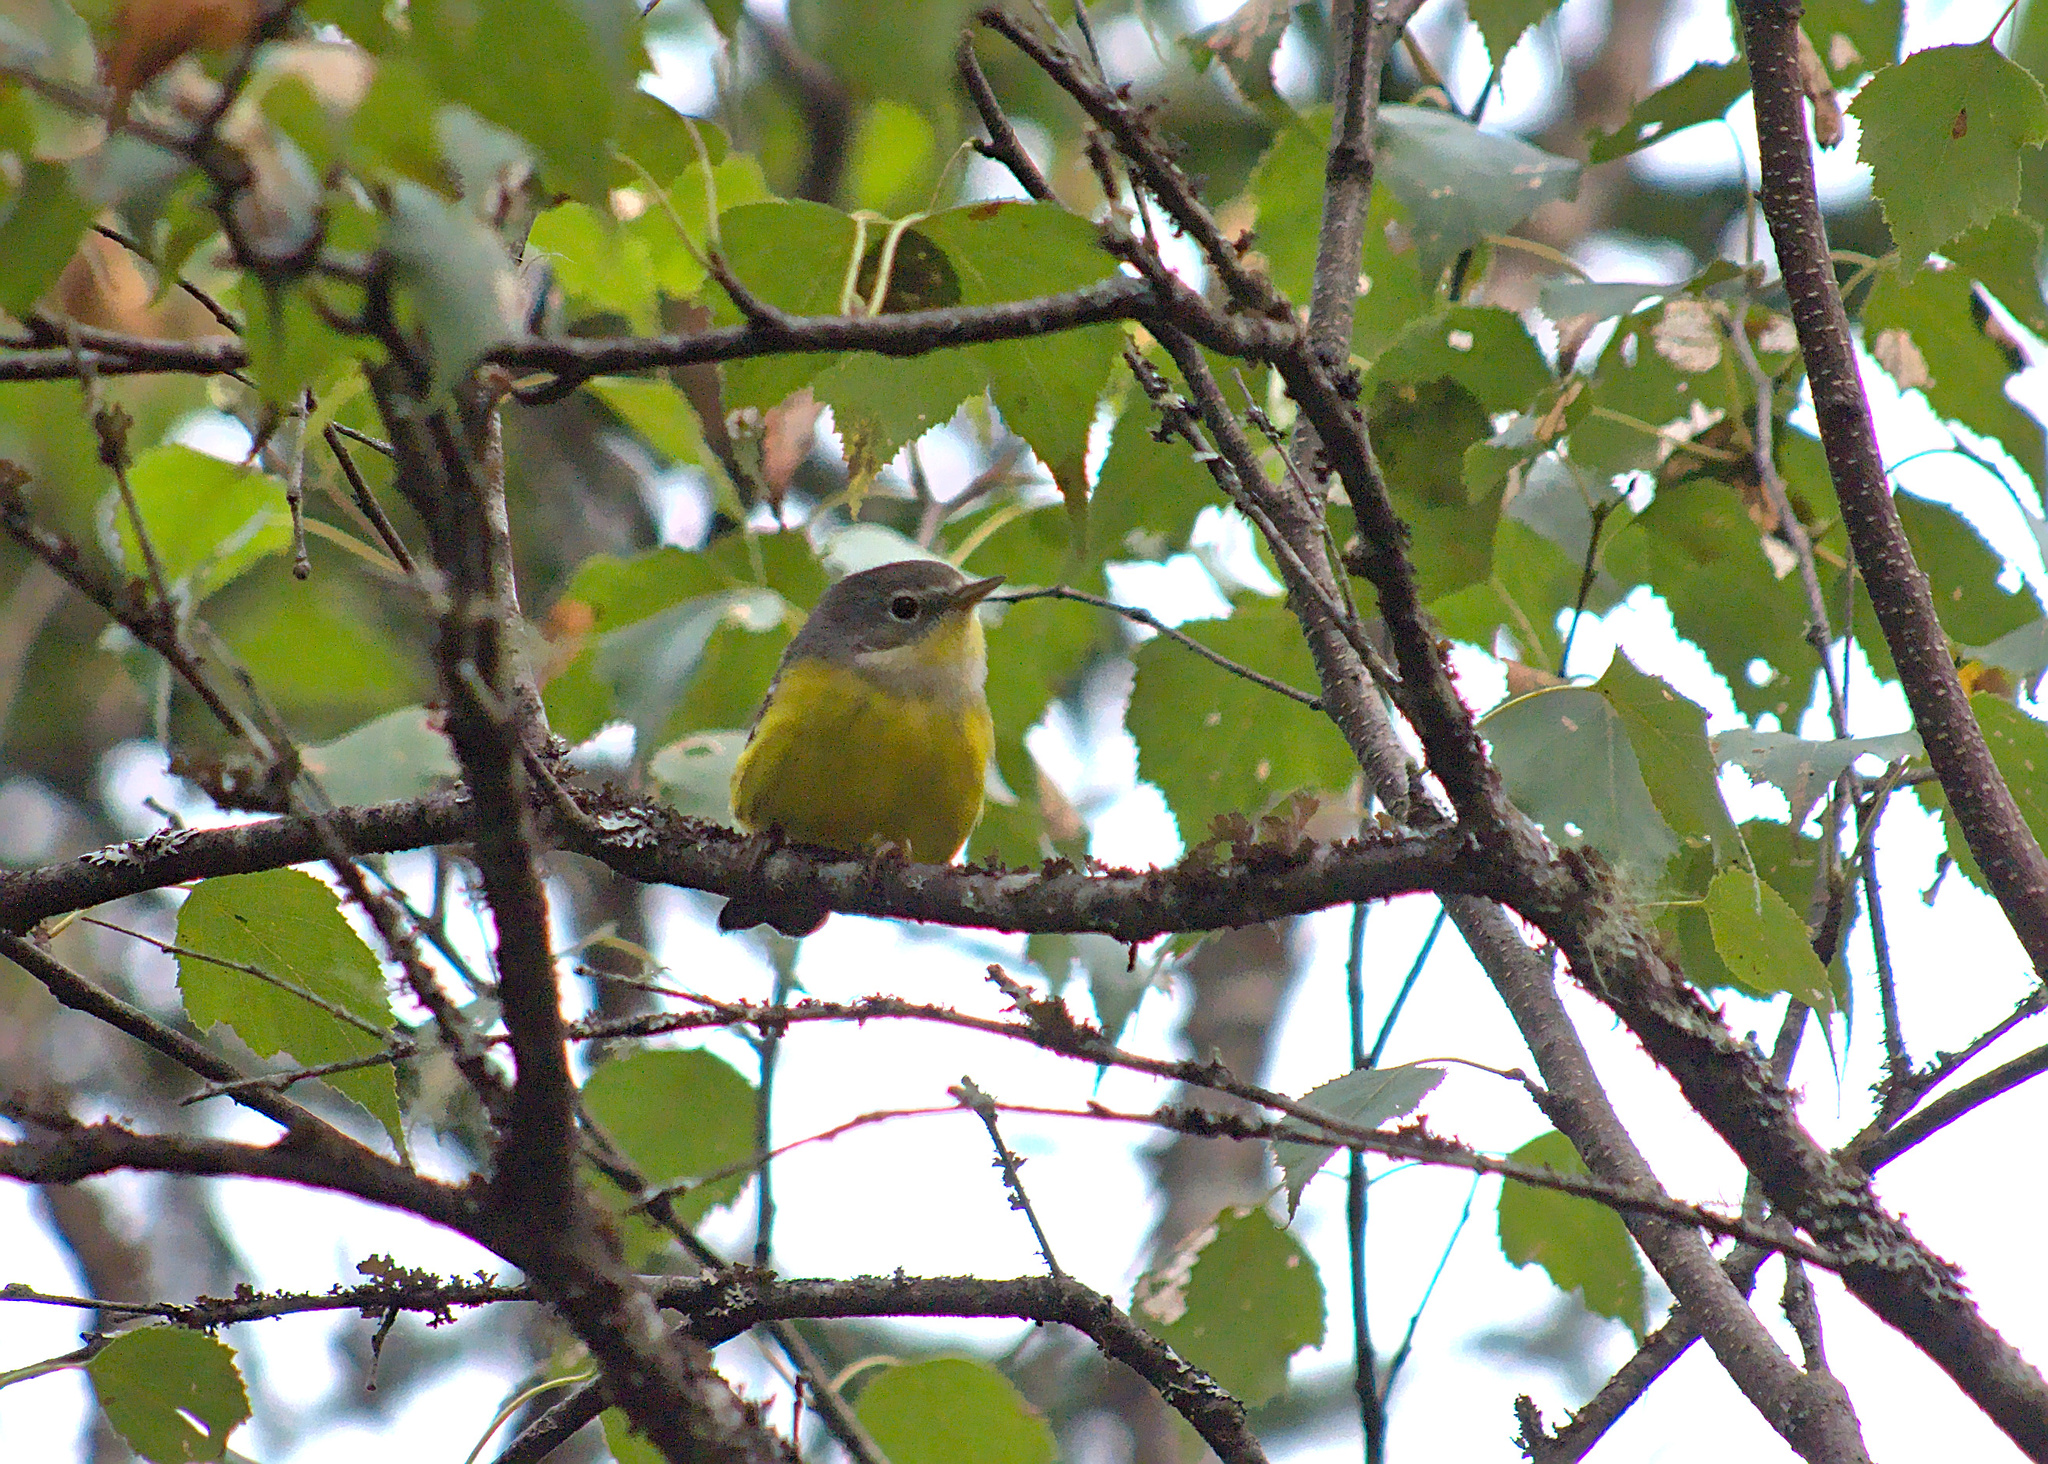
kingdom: Animalia
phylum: Chordata
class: Aves
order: Passeriformes
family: Parulidae
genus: Setophaga
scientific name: Setophaga magnolia
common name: Magnolia warbler
